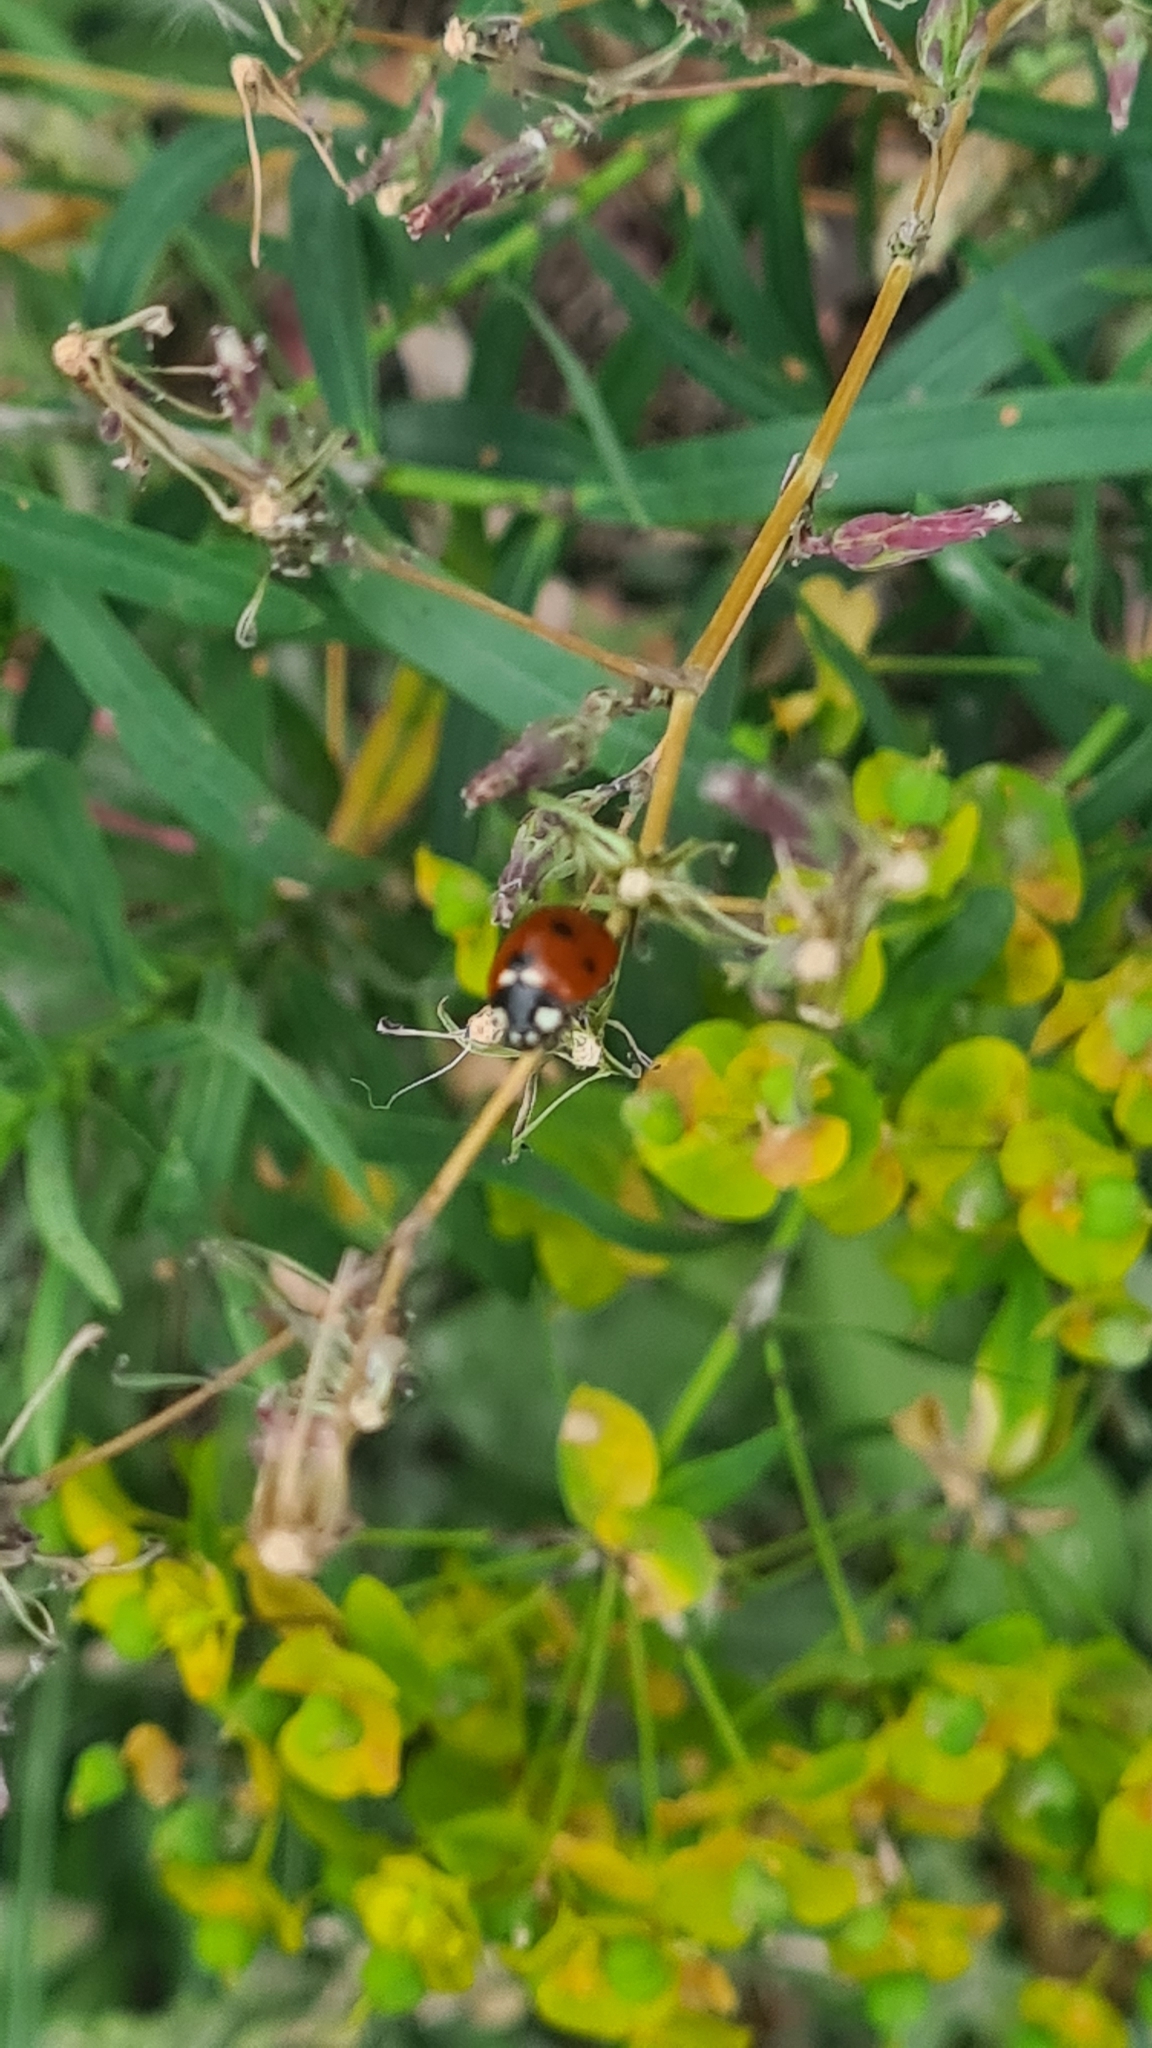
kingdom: Animalia
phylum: Arthropoda
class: Insecta
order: Coleoptera
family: Coccinellidae
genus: Coccinella
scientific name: Coccinella septempunctata
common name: Sevenspotted lady beetle
